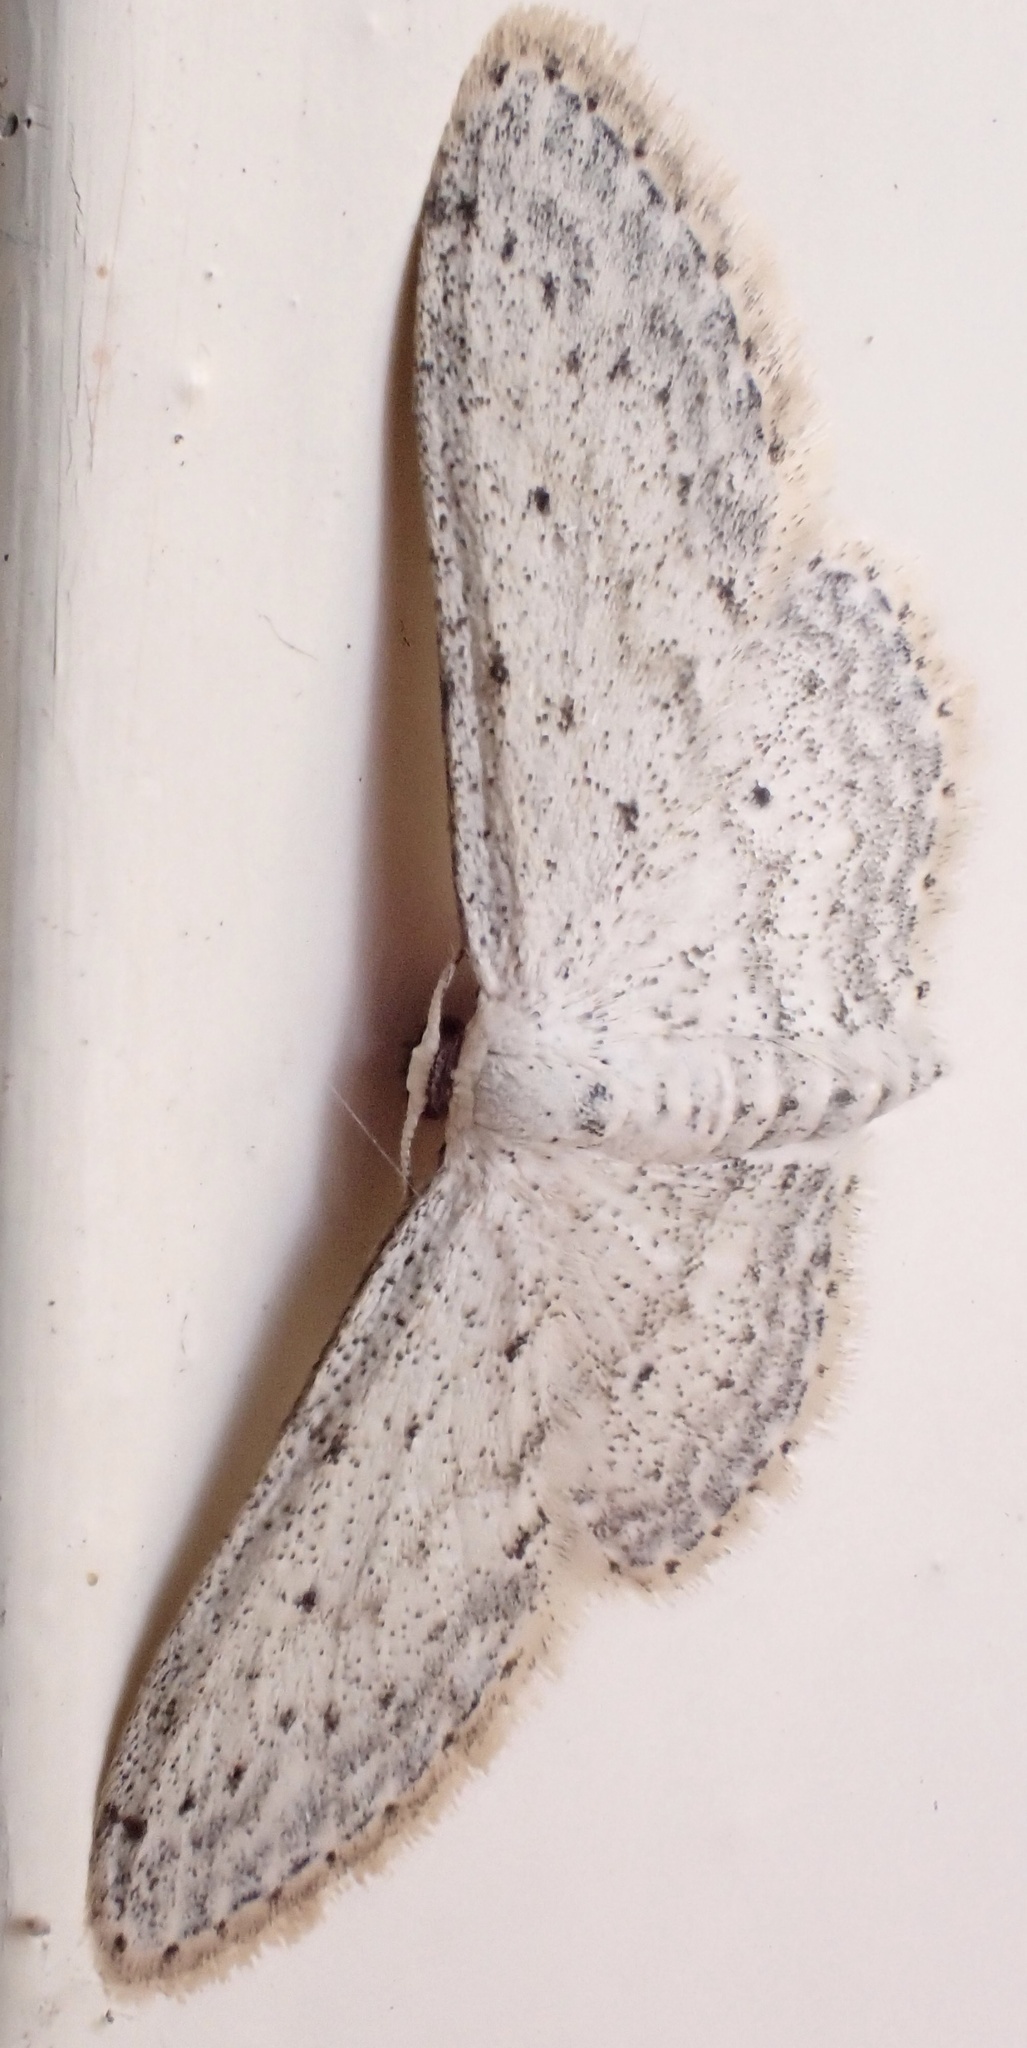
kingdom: Animalia
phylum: Arthropoda
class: Insecta
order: Lepidoptera
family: Geometridae
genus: Idaea
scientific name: Idaea seriata
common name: Small dusty wave
